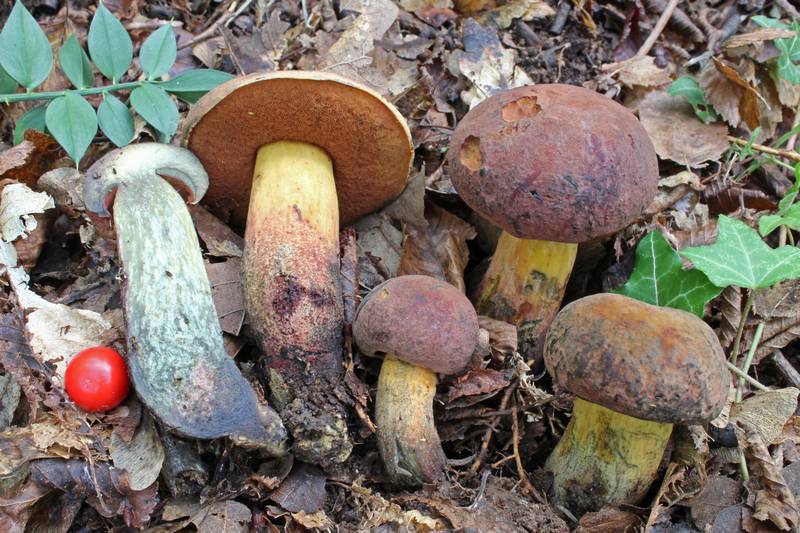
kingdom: Fungi
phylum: Basidiomycota
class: Agaricomycetes
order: Boletales
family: Boletaceae
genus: Suillellus
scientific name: Suillellus adonis
